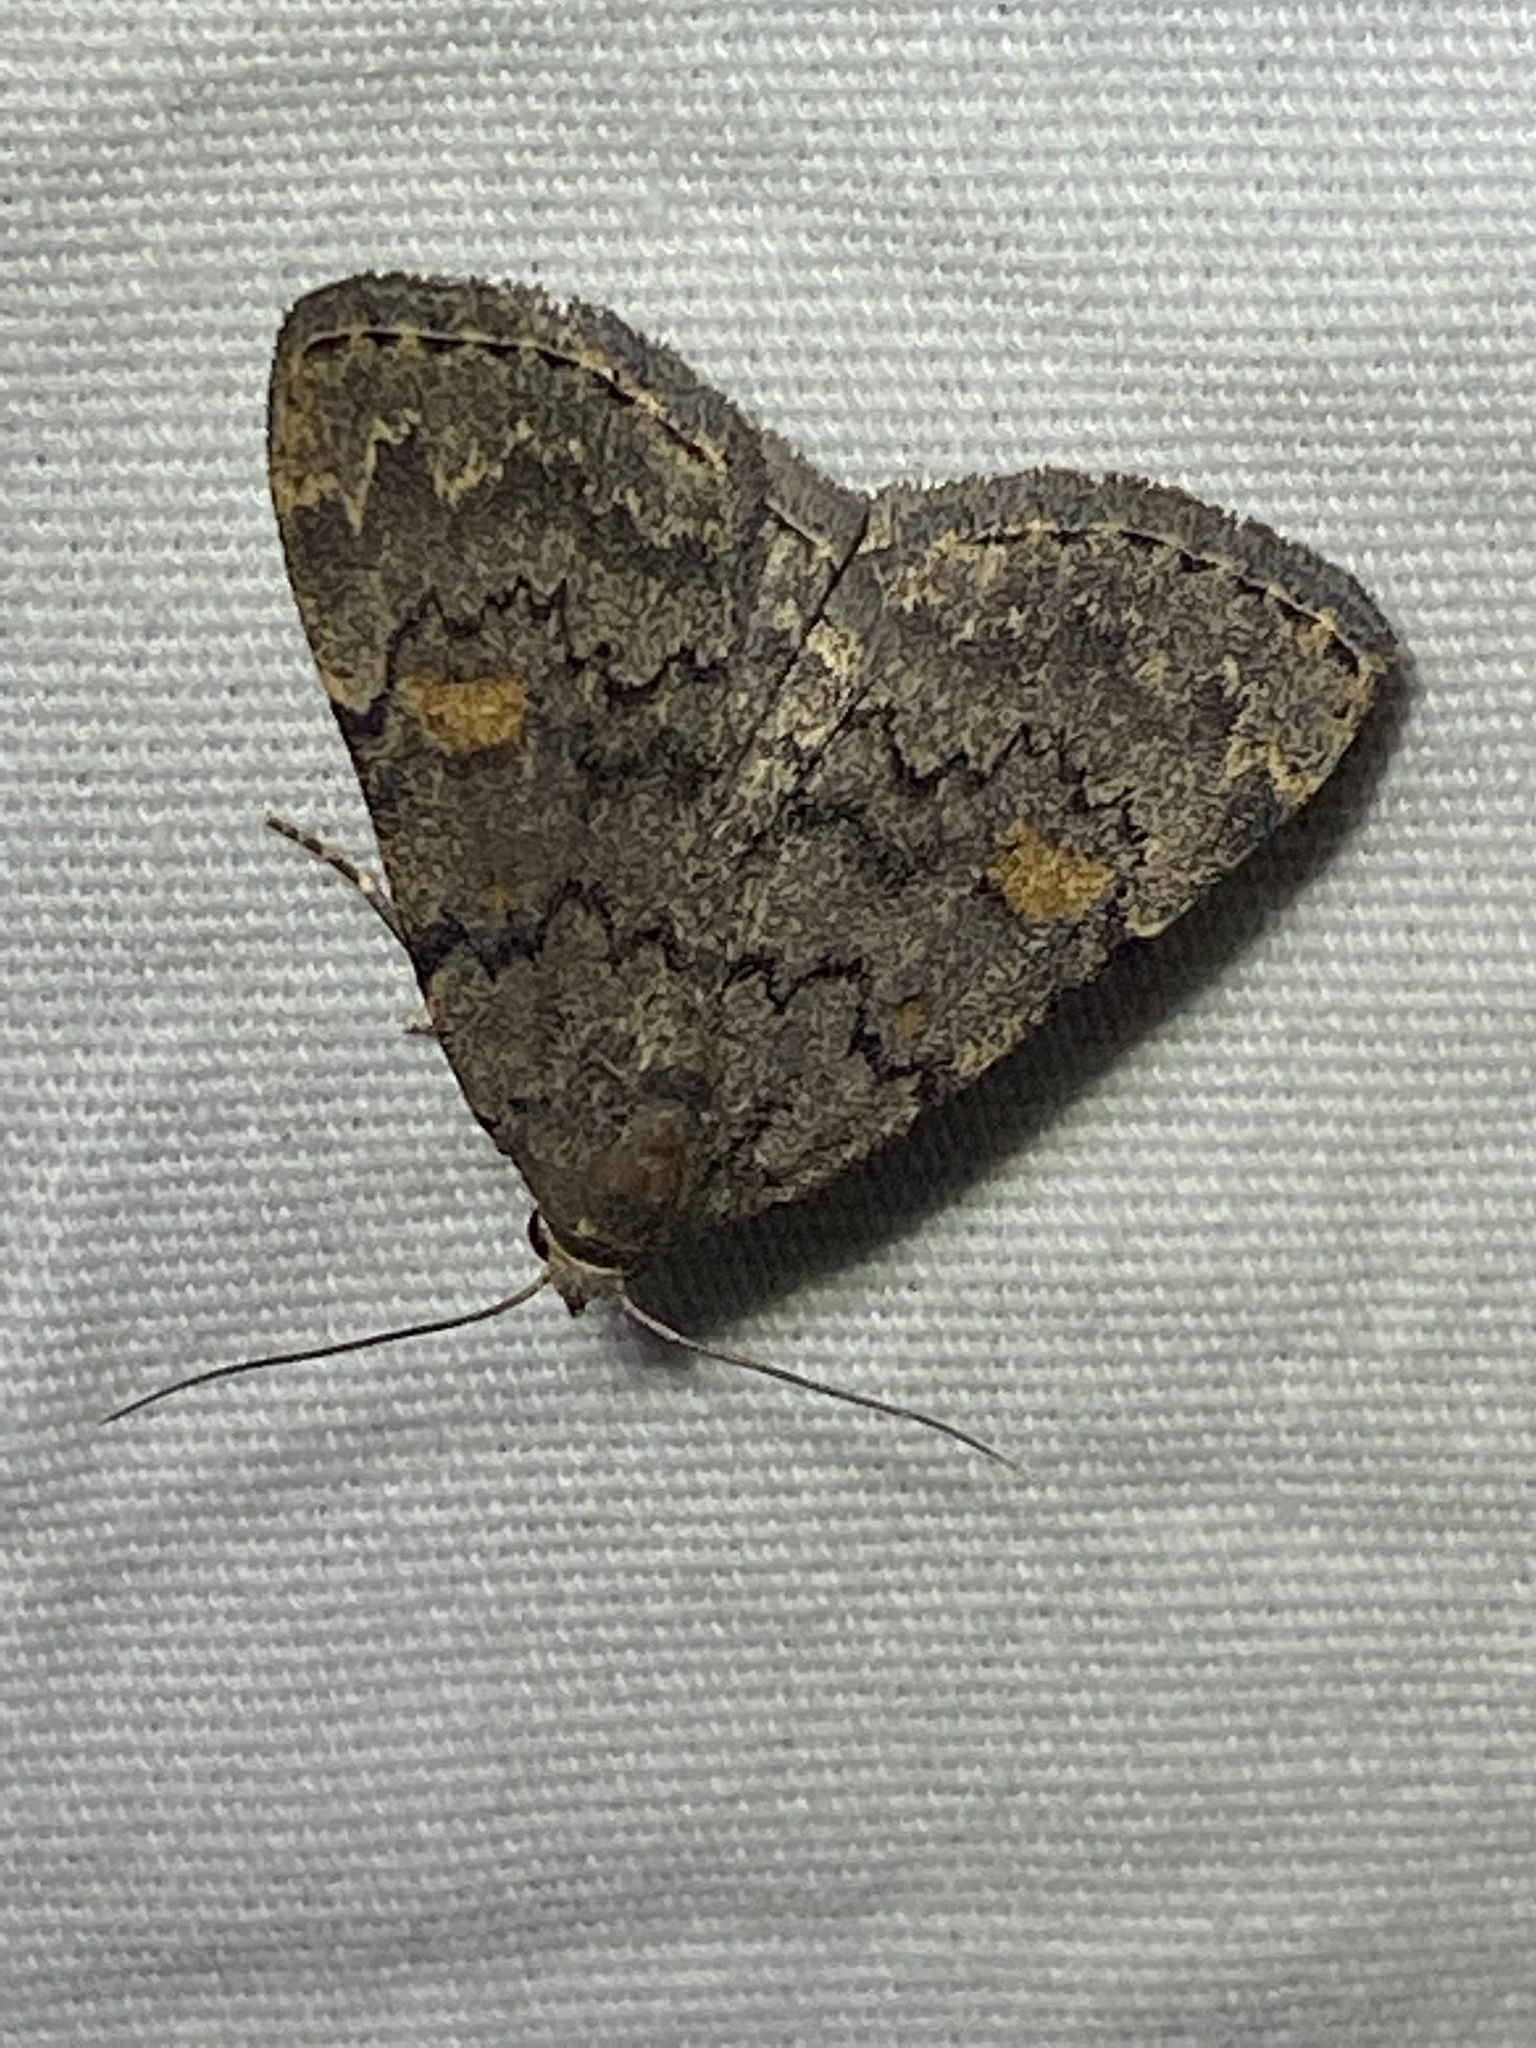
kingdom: Animalia
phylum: Arthropoda
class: Insecta
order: Lepidoptera
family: Erebidae
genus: Idia
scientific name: Idia aemula
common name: Common idia moth
